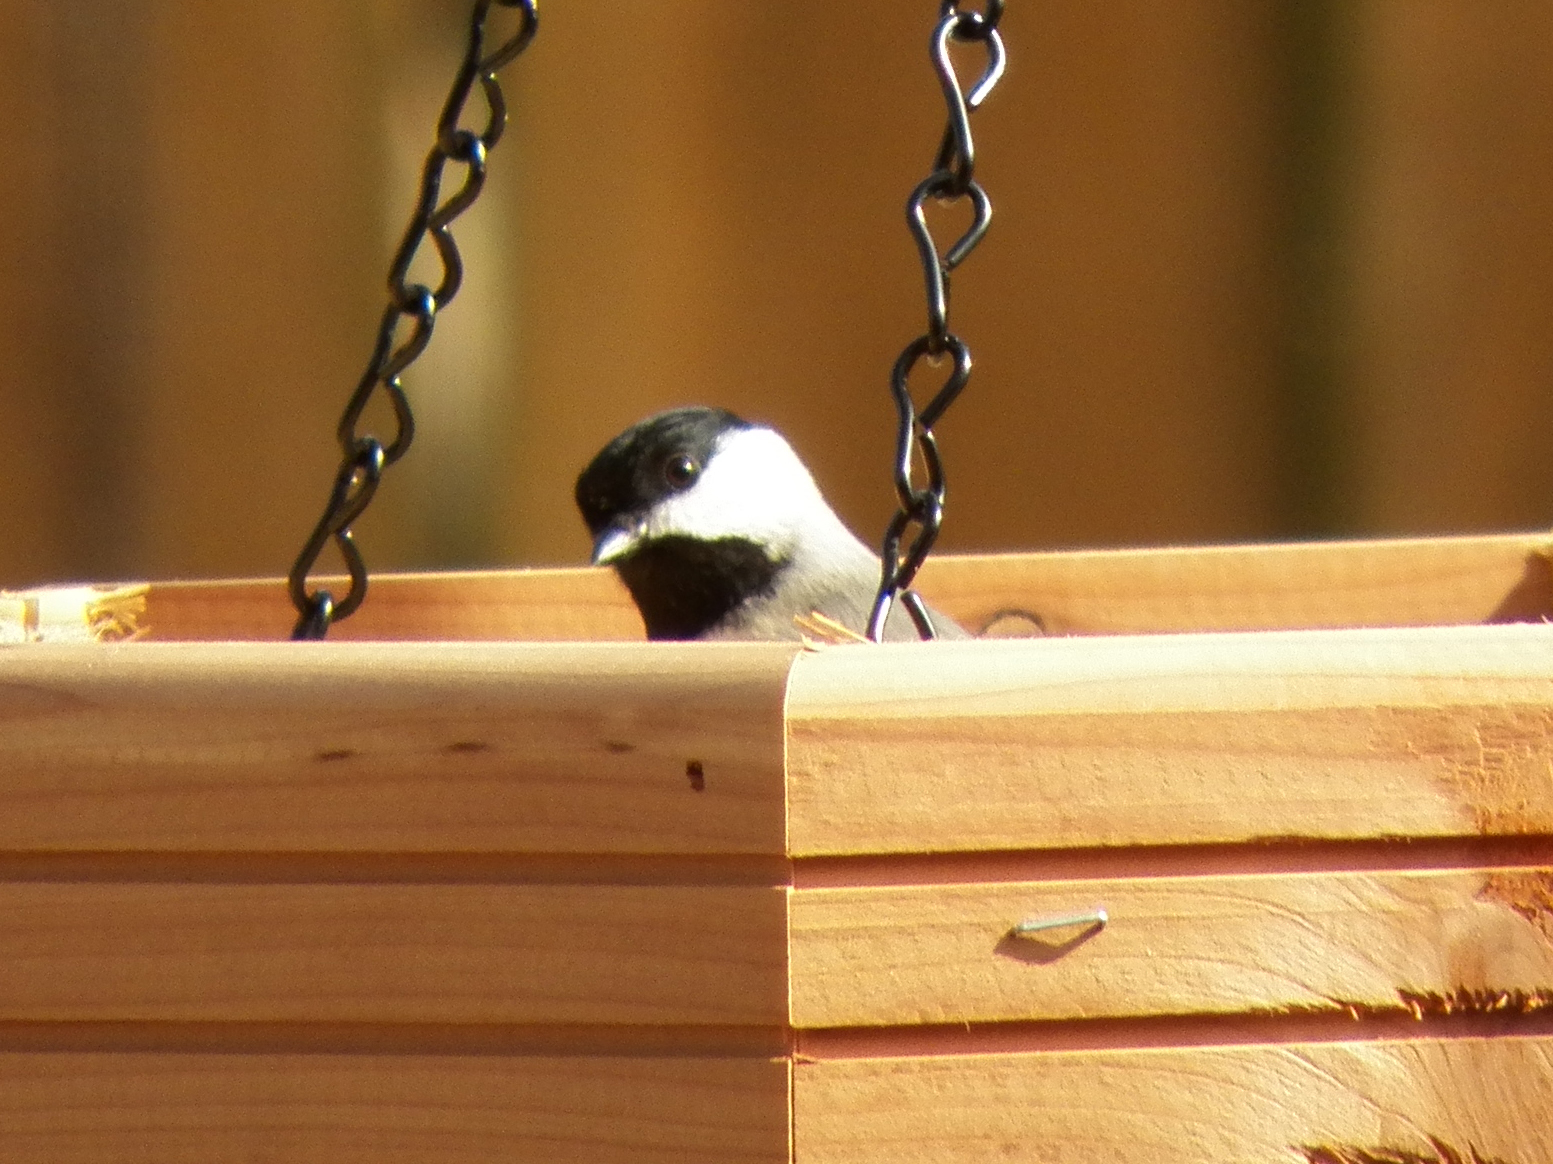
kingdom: Animalia
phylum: Chordata
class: Aves
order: Passeriformes
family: Paridae
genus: Poecile
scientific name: Poecile carolinensis
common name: Carolina chickadee
